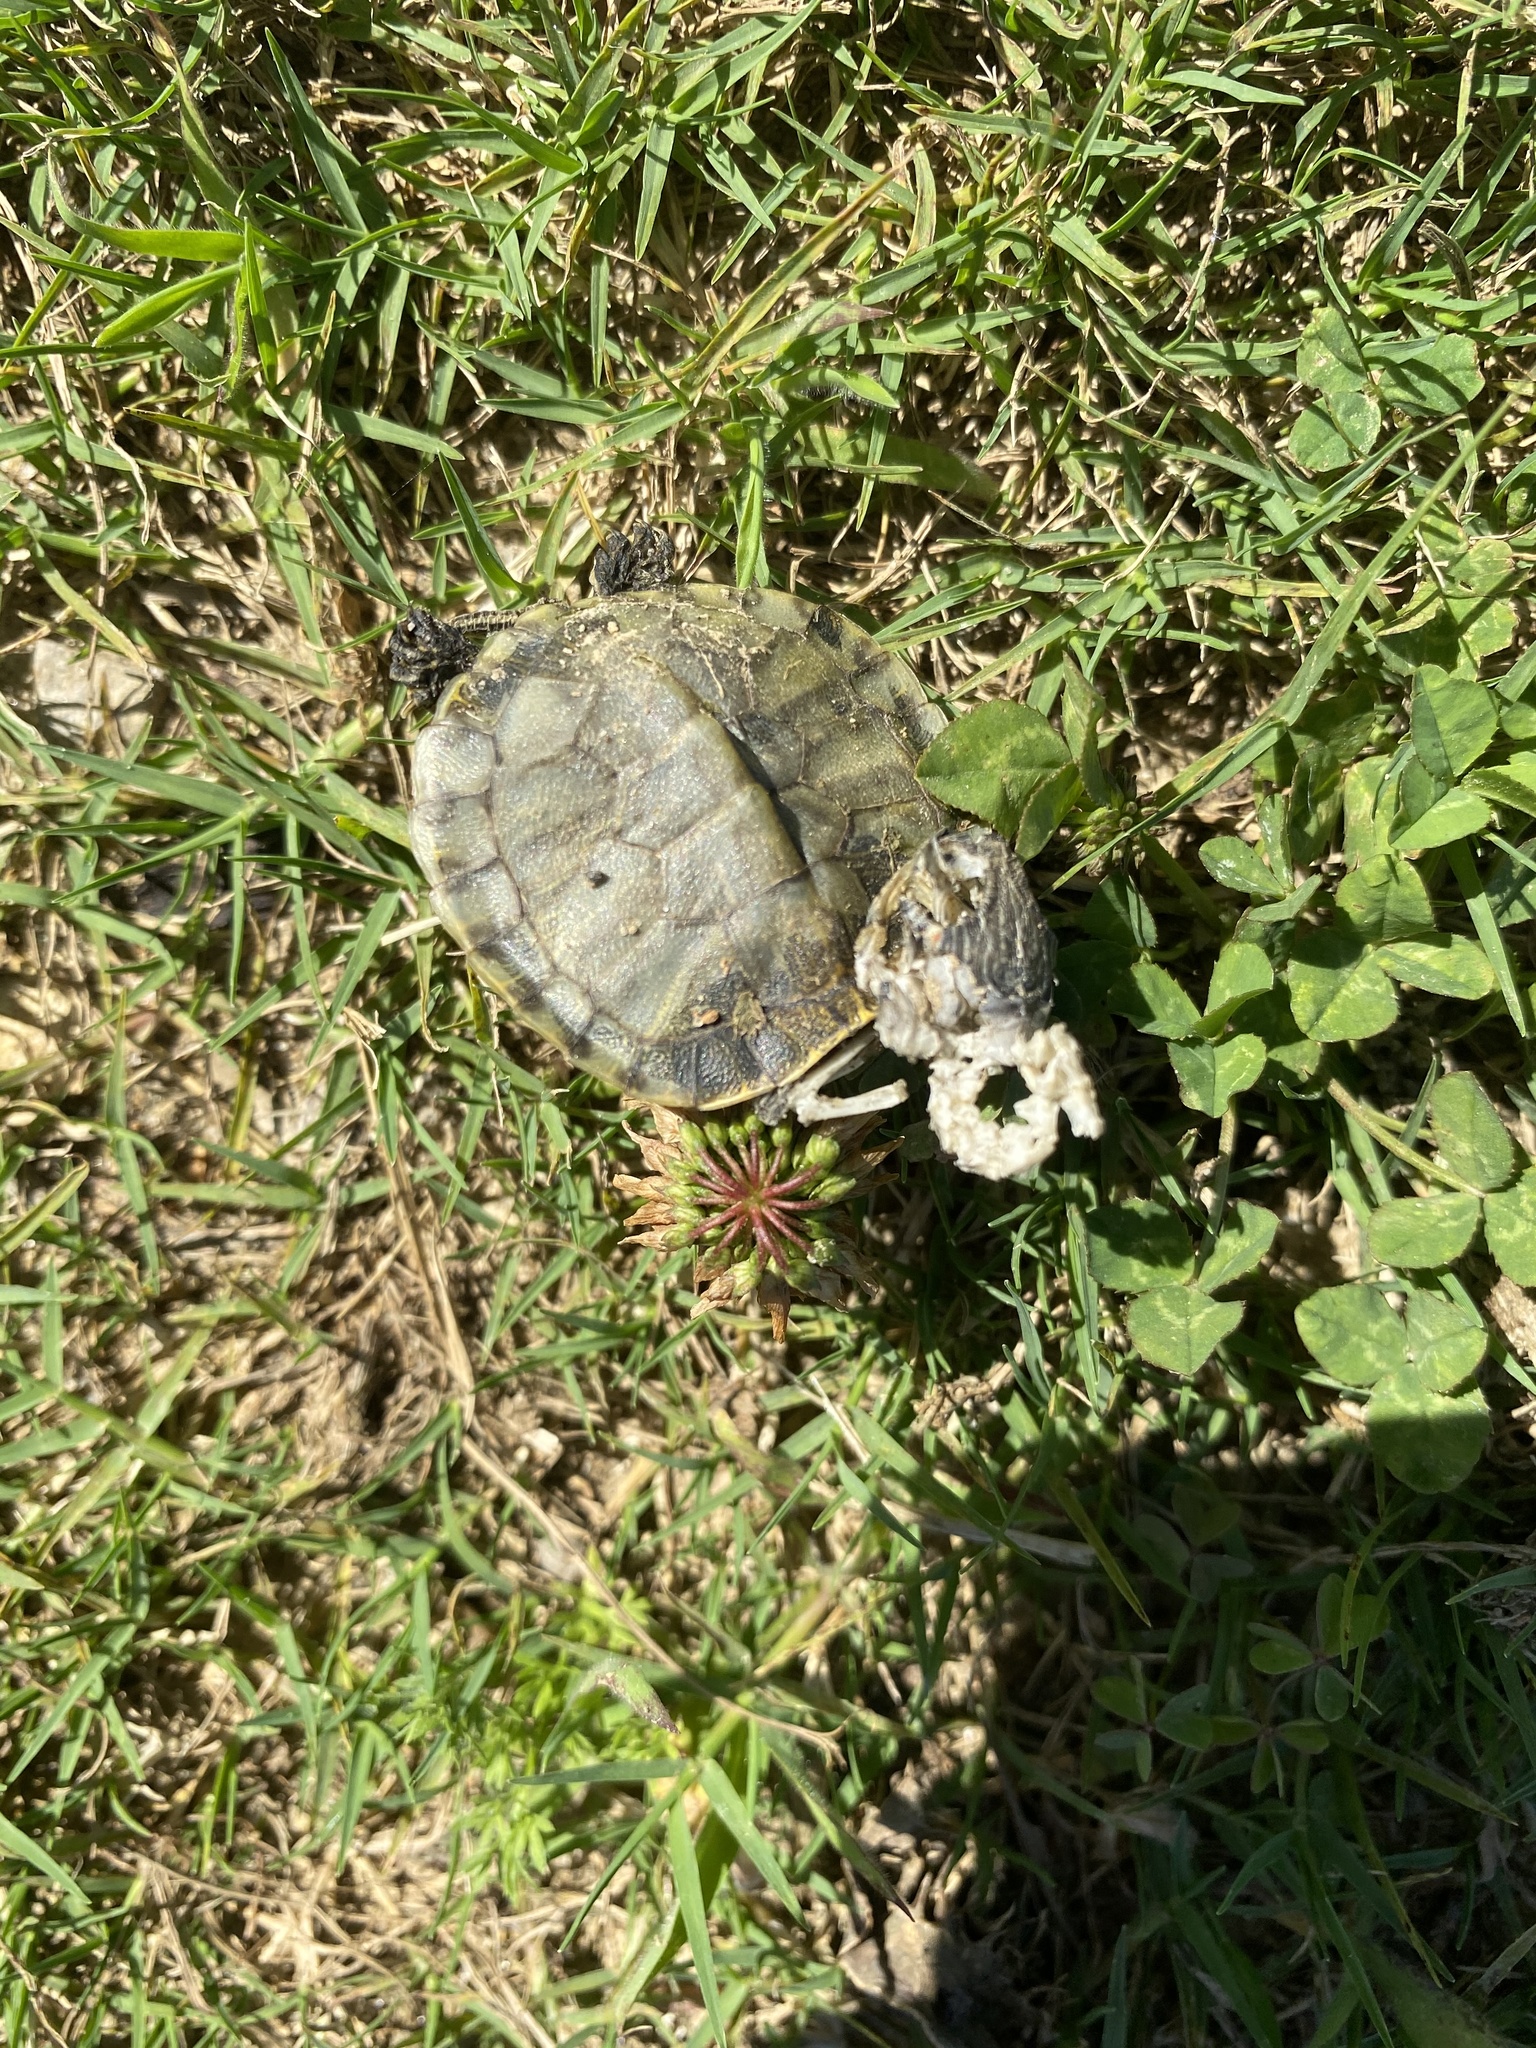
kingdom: Animalia
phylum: Chordata
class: Testudines
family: Emydidae
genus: Trachemys
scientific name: Trachemys scripta
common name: Slider
